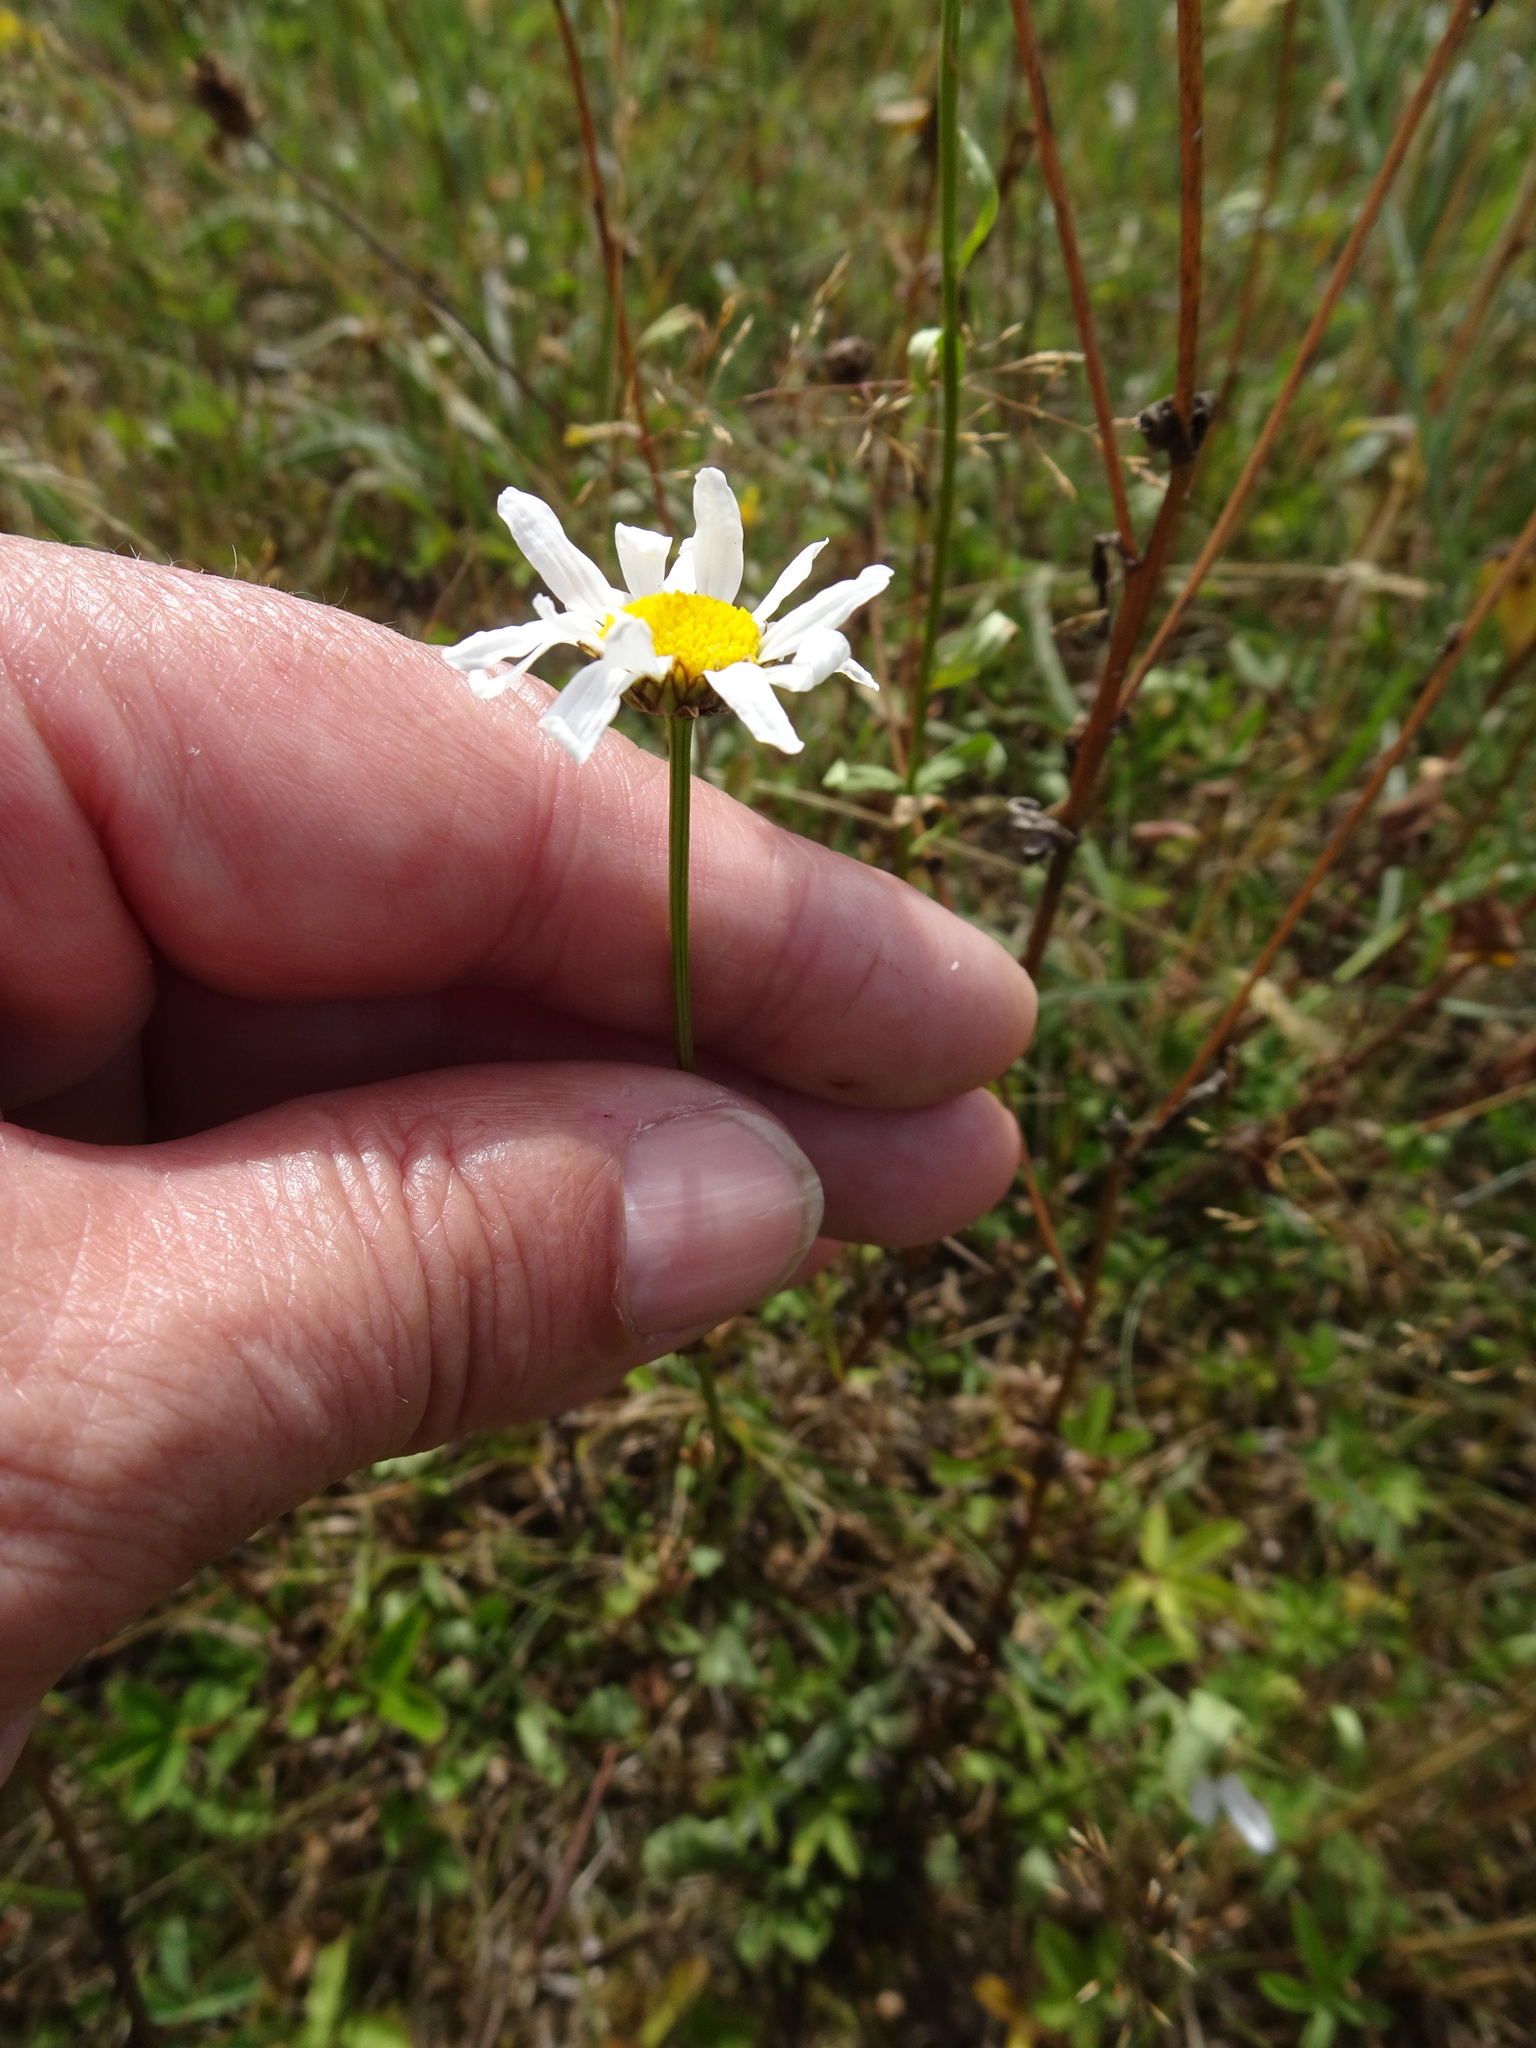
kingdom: Plantae
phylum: Tracheophyta
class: Magnoliopsida
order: Asterales
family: Asteraceae
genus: Leucanthemum
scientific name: Leucanthemum vulgare
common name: Oxeye daisy
